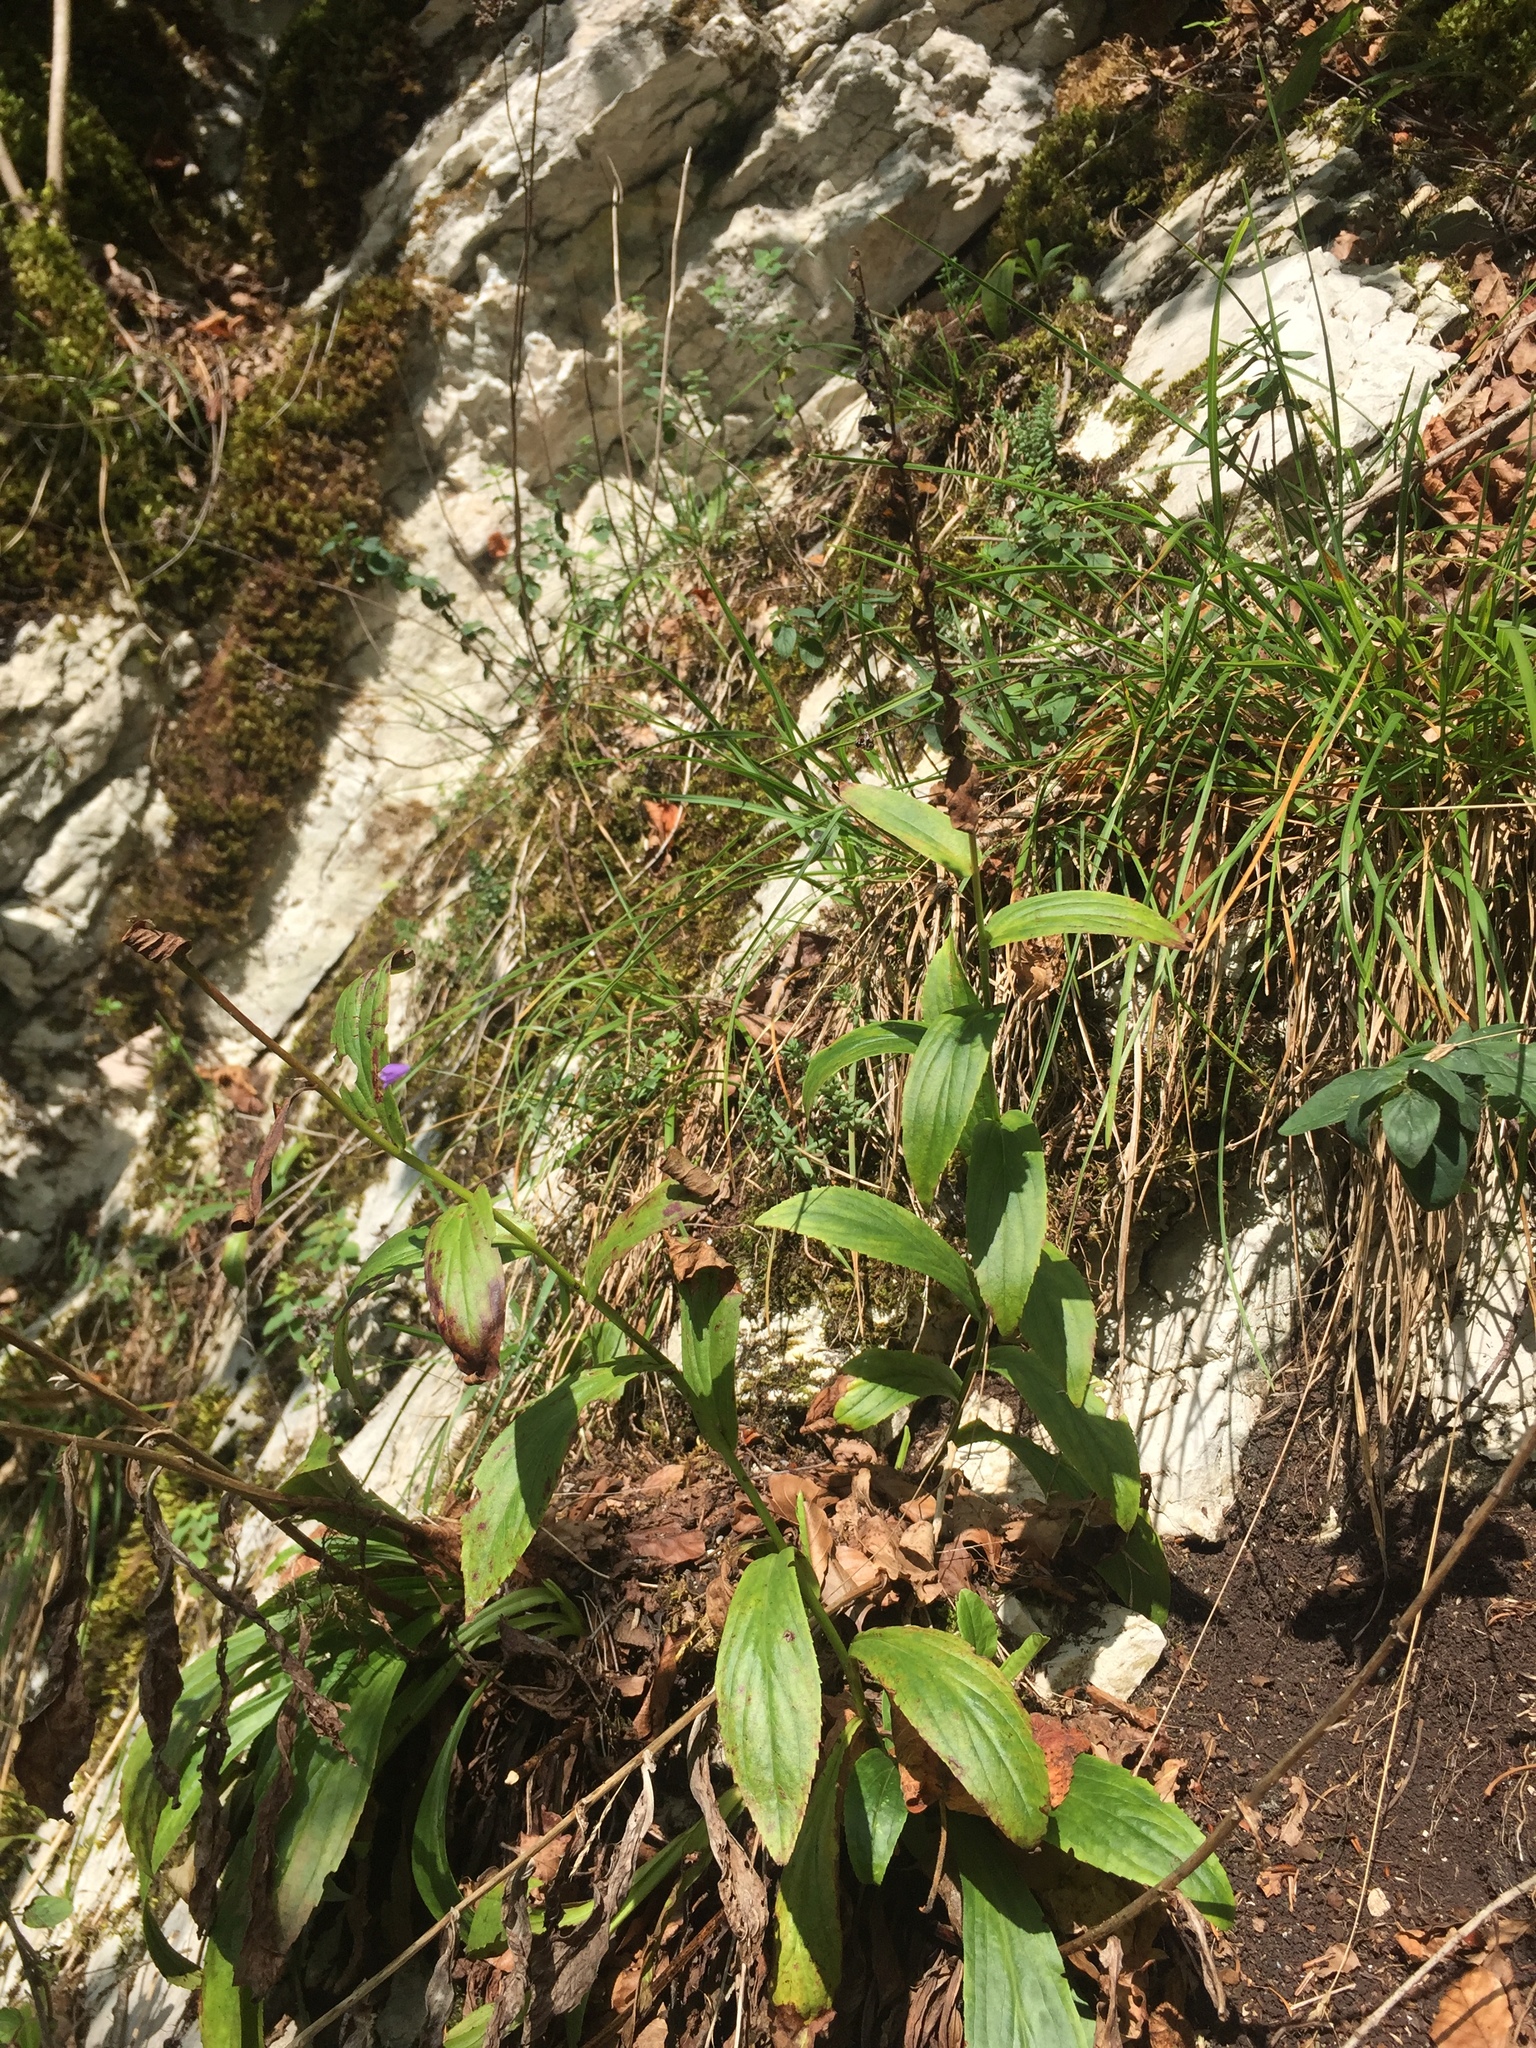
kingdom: Plantae
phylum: Tracheophyta
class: Magnoliopsida
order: Lamiales
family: Plantaginaceae
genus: Digitalis
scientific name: Digitalis lutea
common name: Straw foxglove
